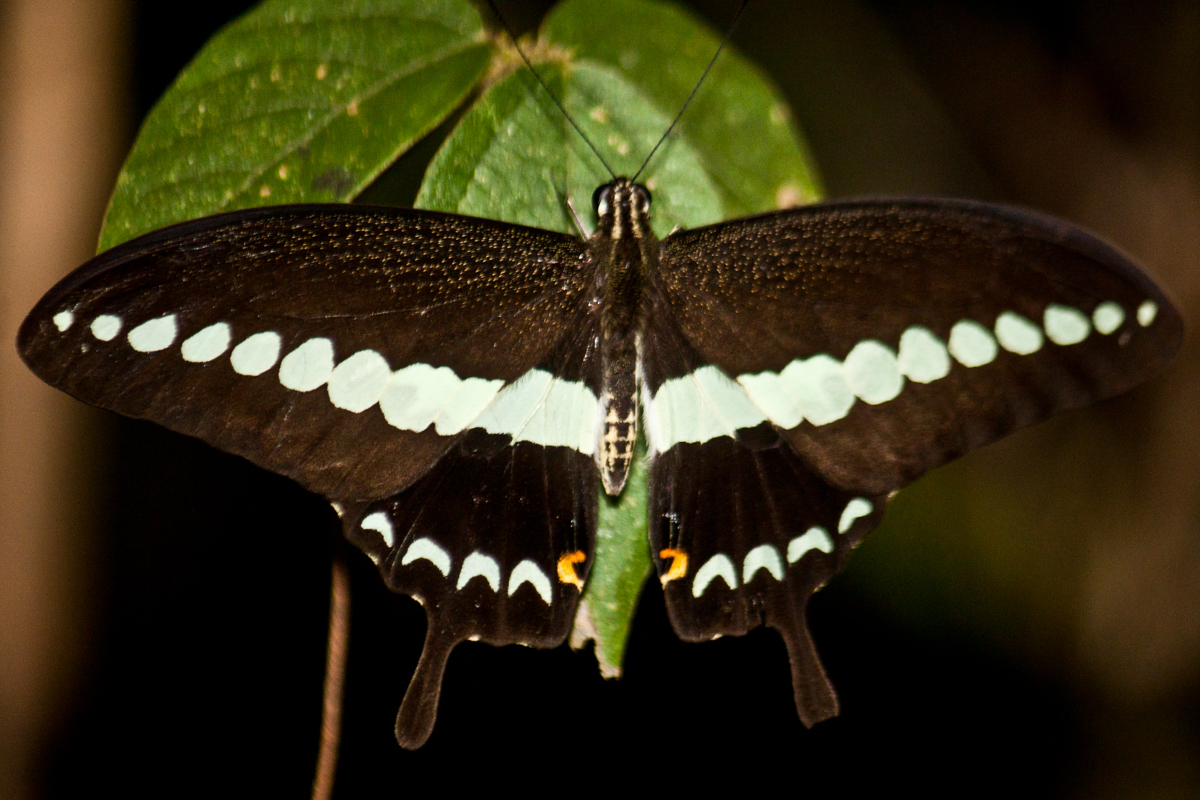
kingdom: Animalia
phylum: Arthropoda
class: Insecta
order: Lepidoptera
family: Papilionidae
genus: Papilio
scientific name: Papilio demolion
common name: Banded swallowtail
